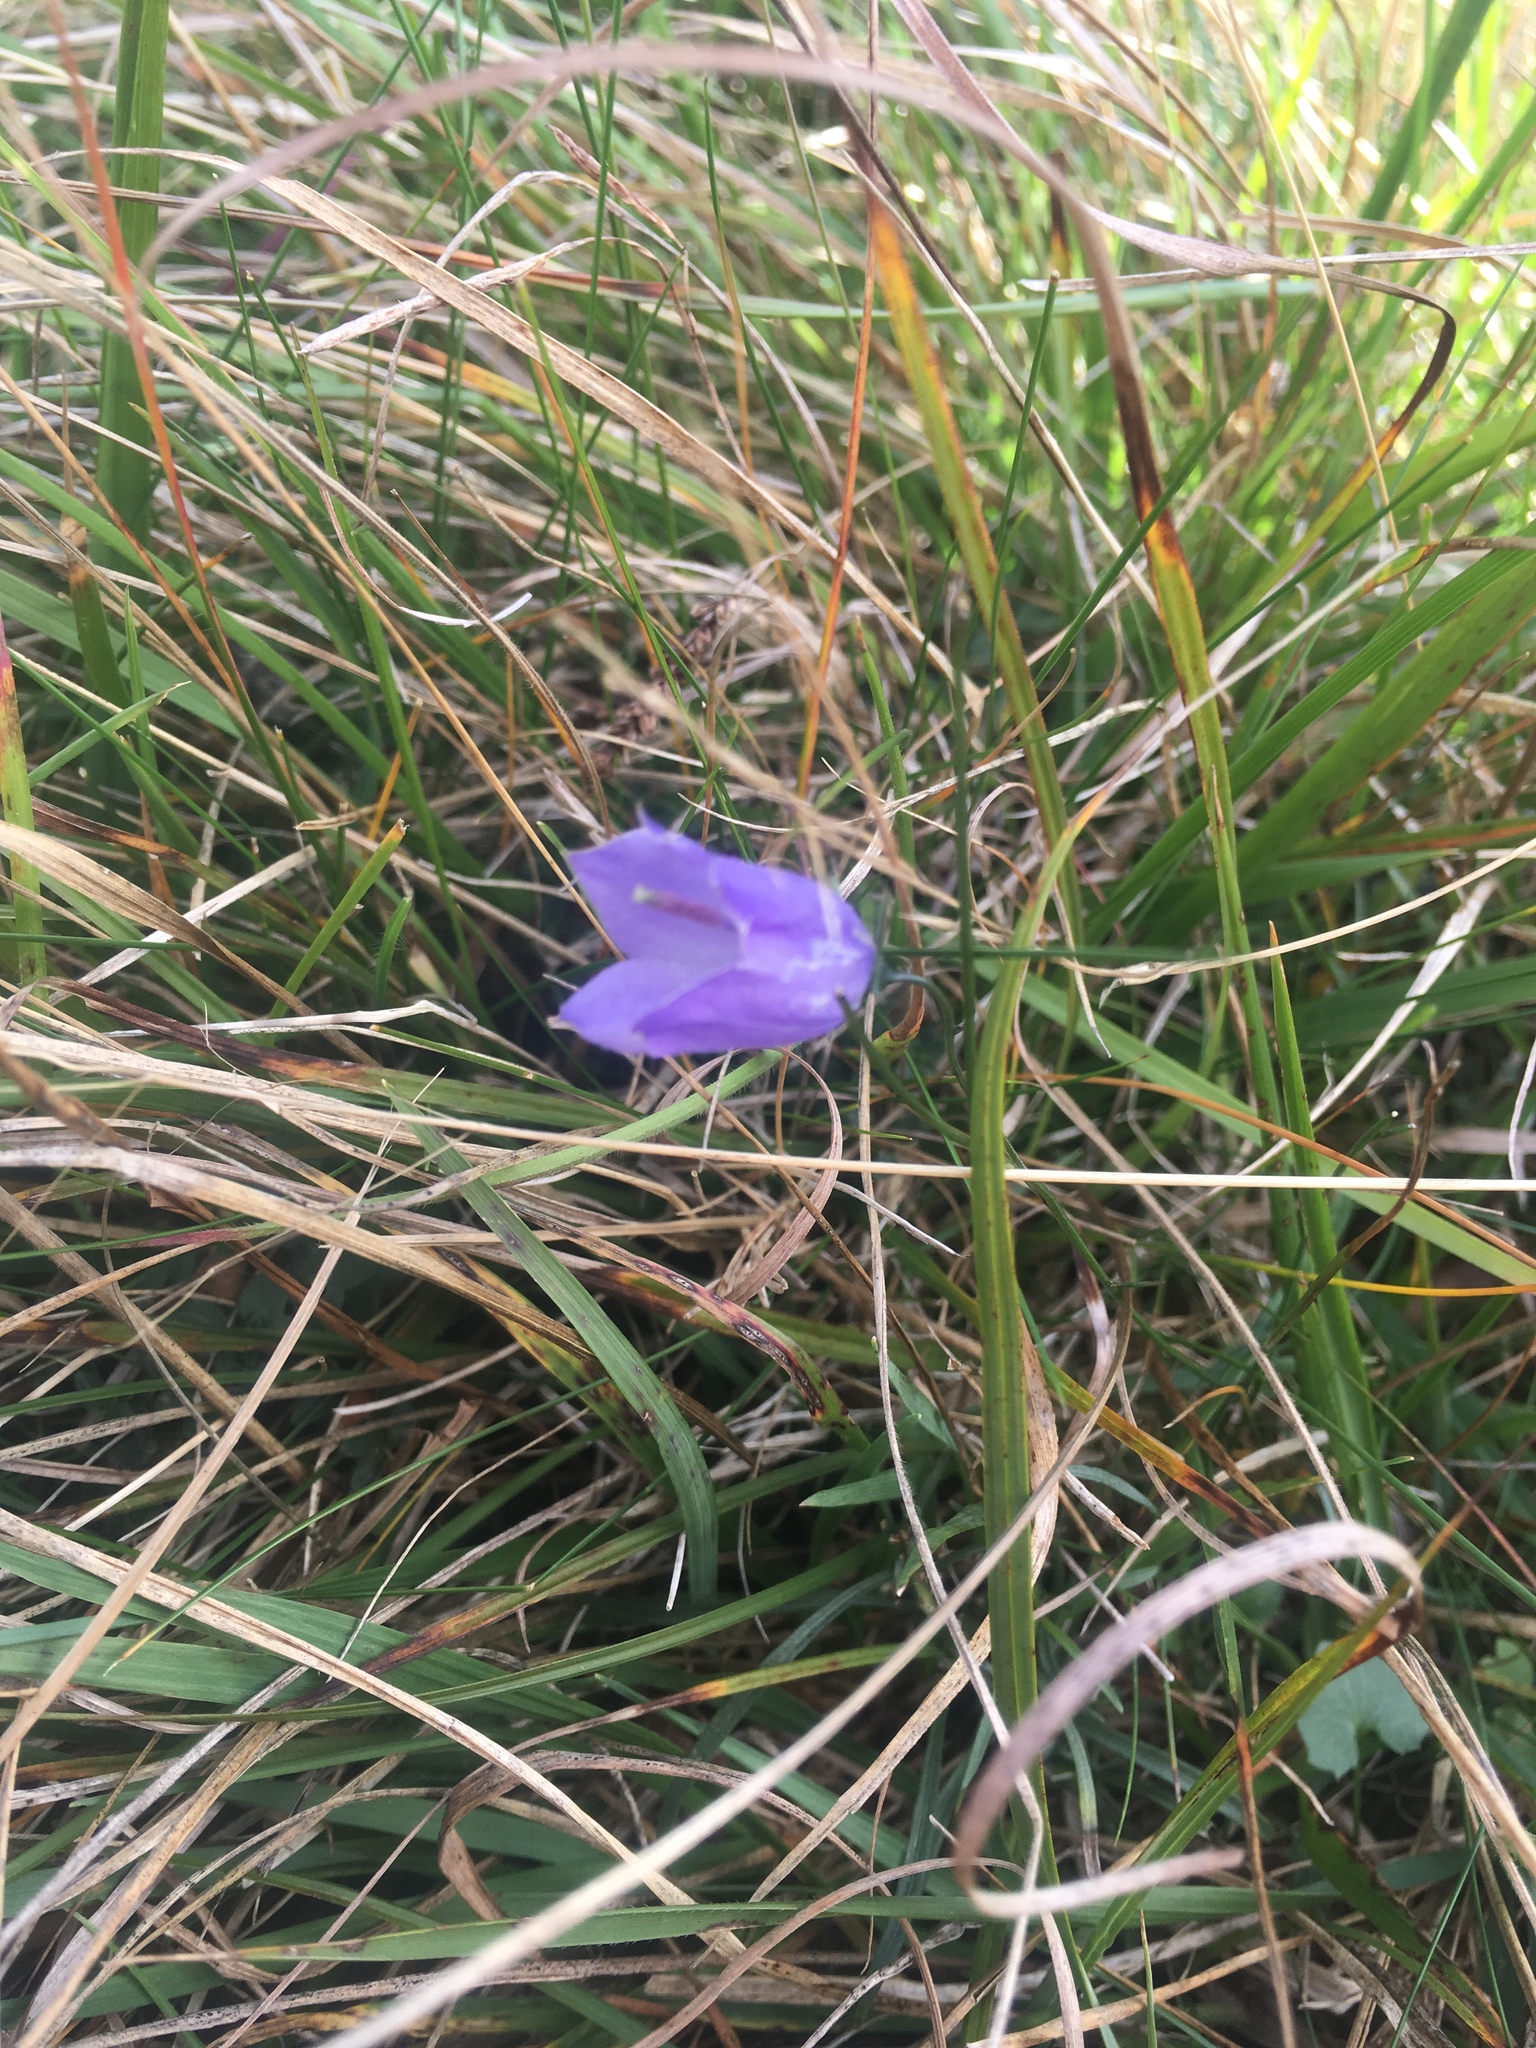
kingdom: Plantae
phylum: Tracheophyta
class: Magnoliopsida
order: Asterales
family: Campanulaceae
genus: Campanula
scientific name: Campanula rotundifolia
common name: Harebell
